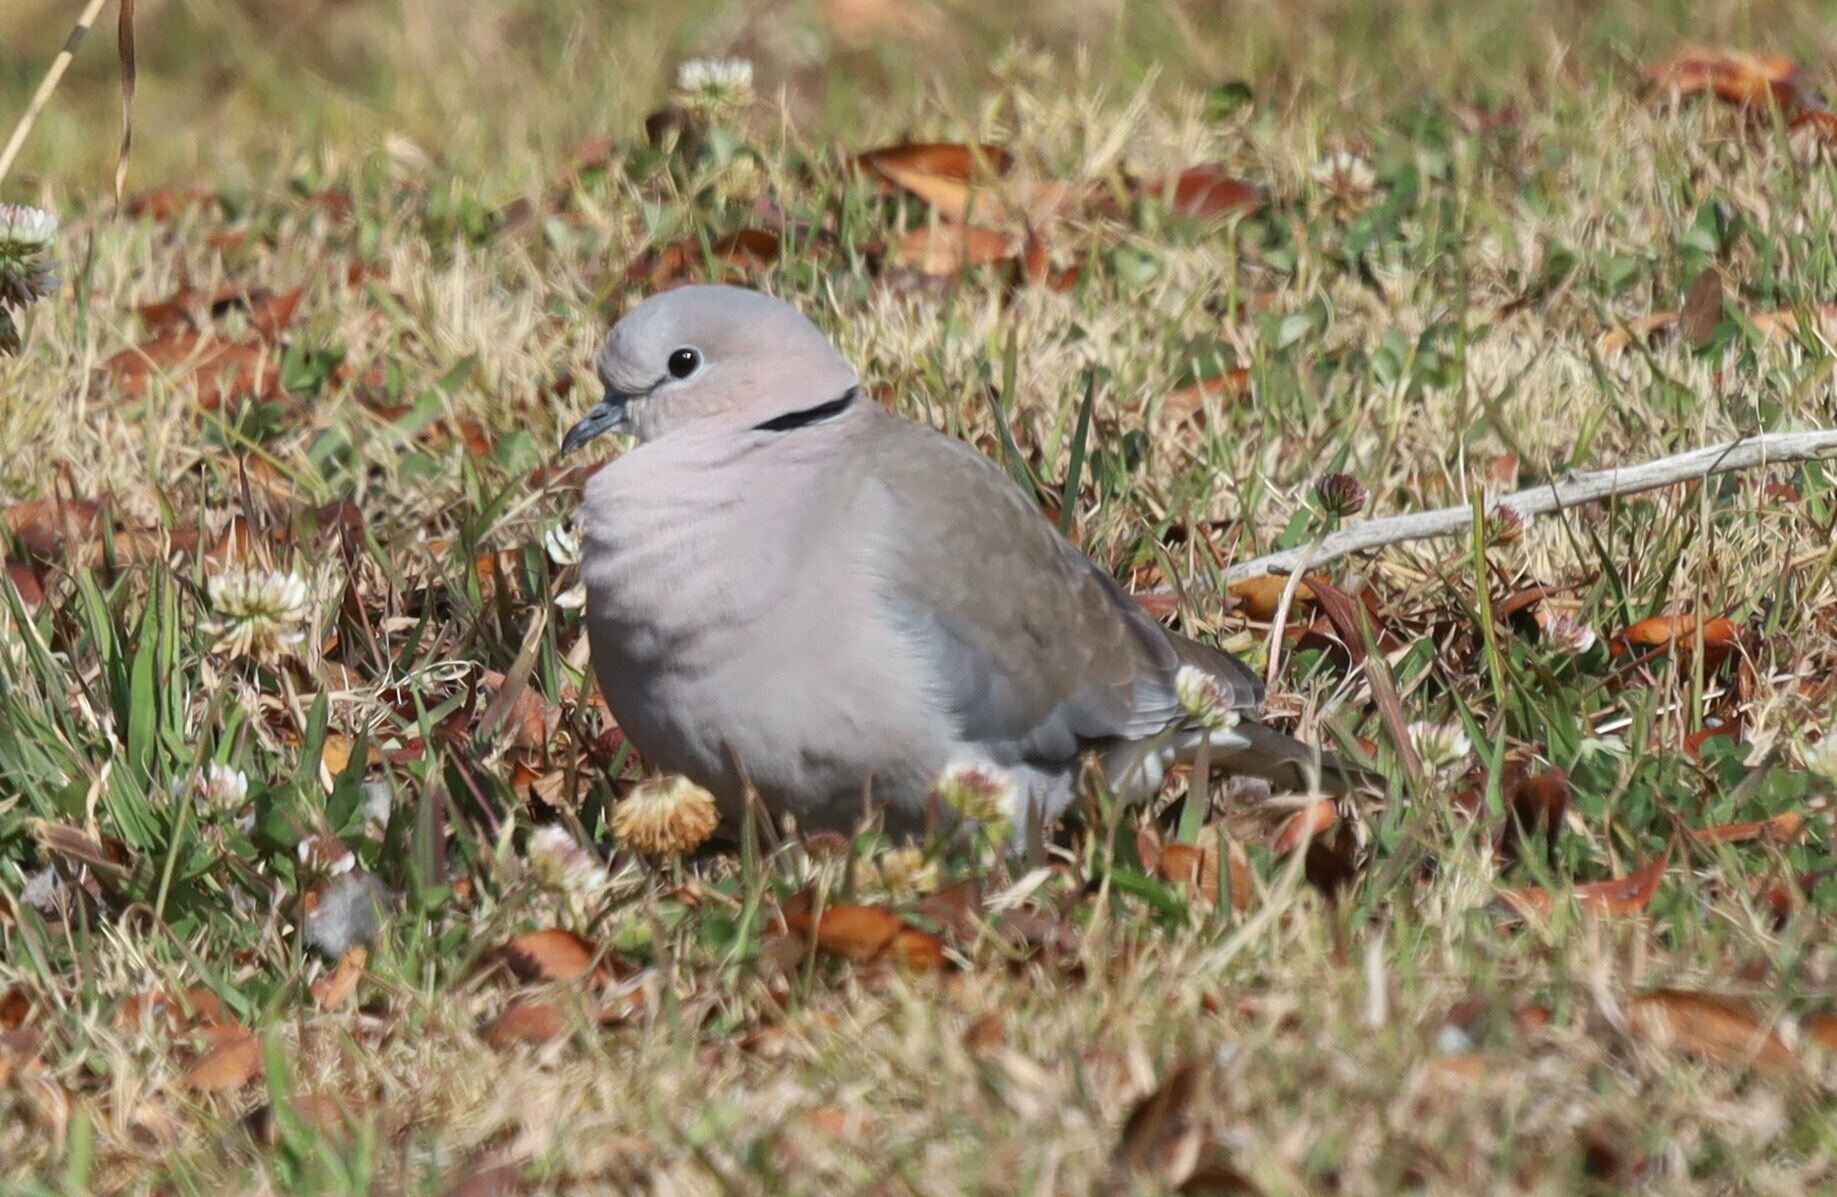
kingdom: Animalia
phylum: Chordata
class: Aves
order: Columbiformes
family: Columbidae
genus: Streptopelia
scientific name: Streptopelia capicola
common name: Ring-necked dove
